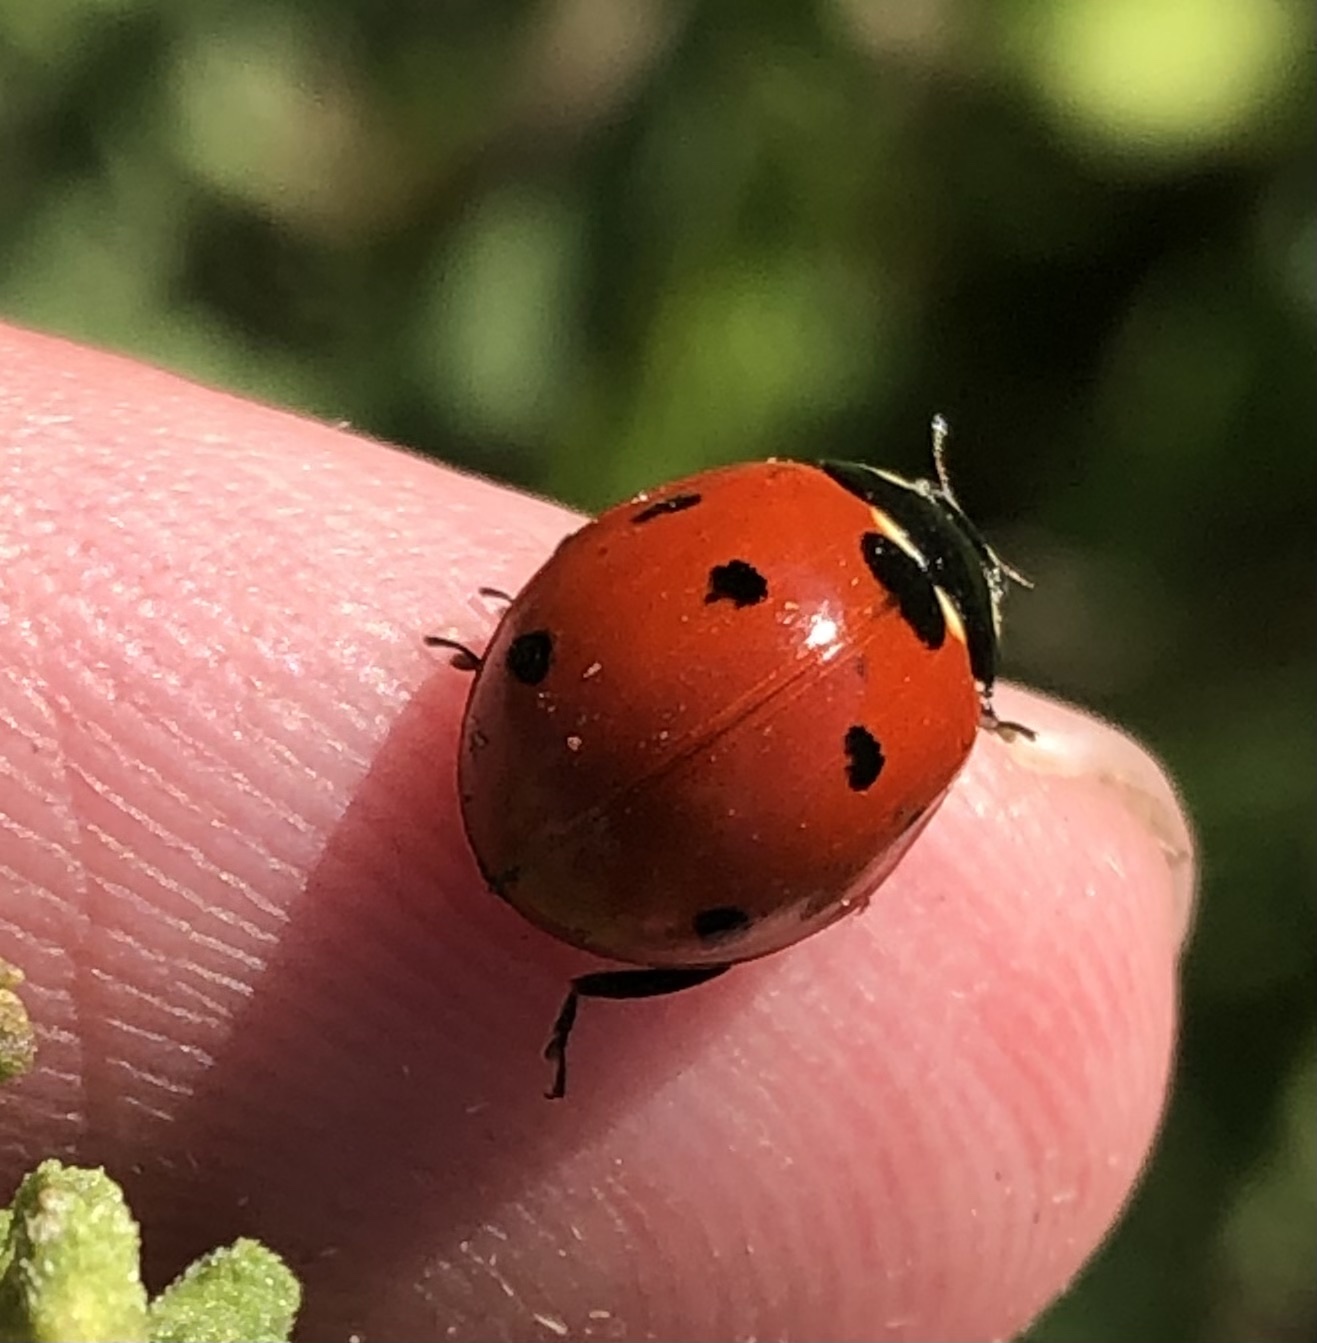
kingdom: Animalia
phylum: Arthropoda
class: Insecta
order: Coleoptera
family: Coccinellidae
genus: Coccinella
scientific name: Coccinella septempunctata
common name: Sevenspotted lady beetle
